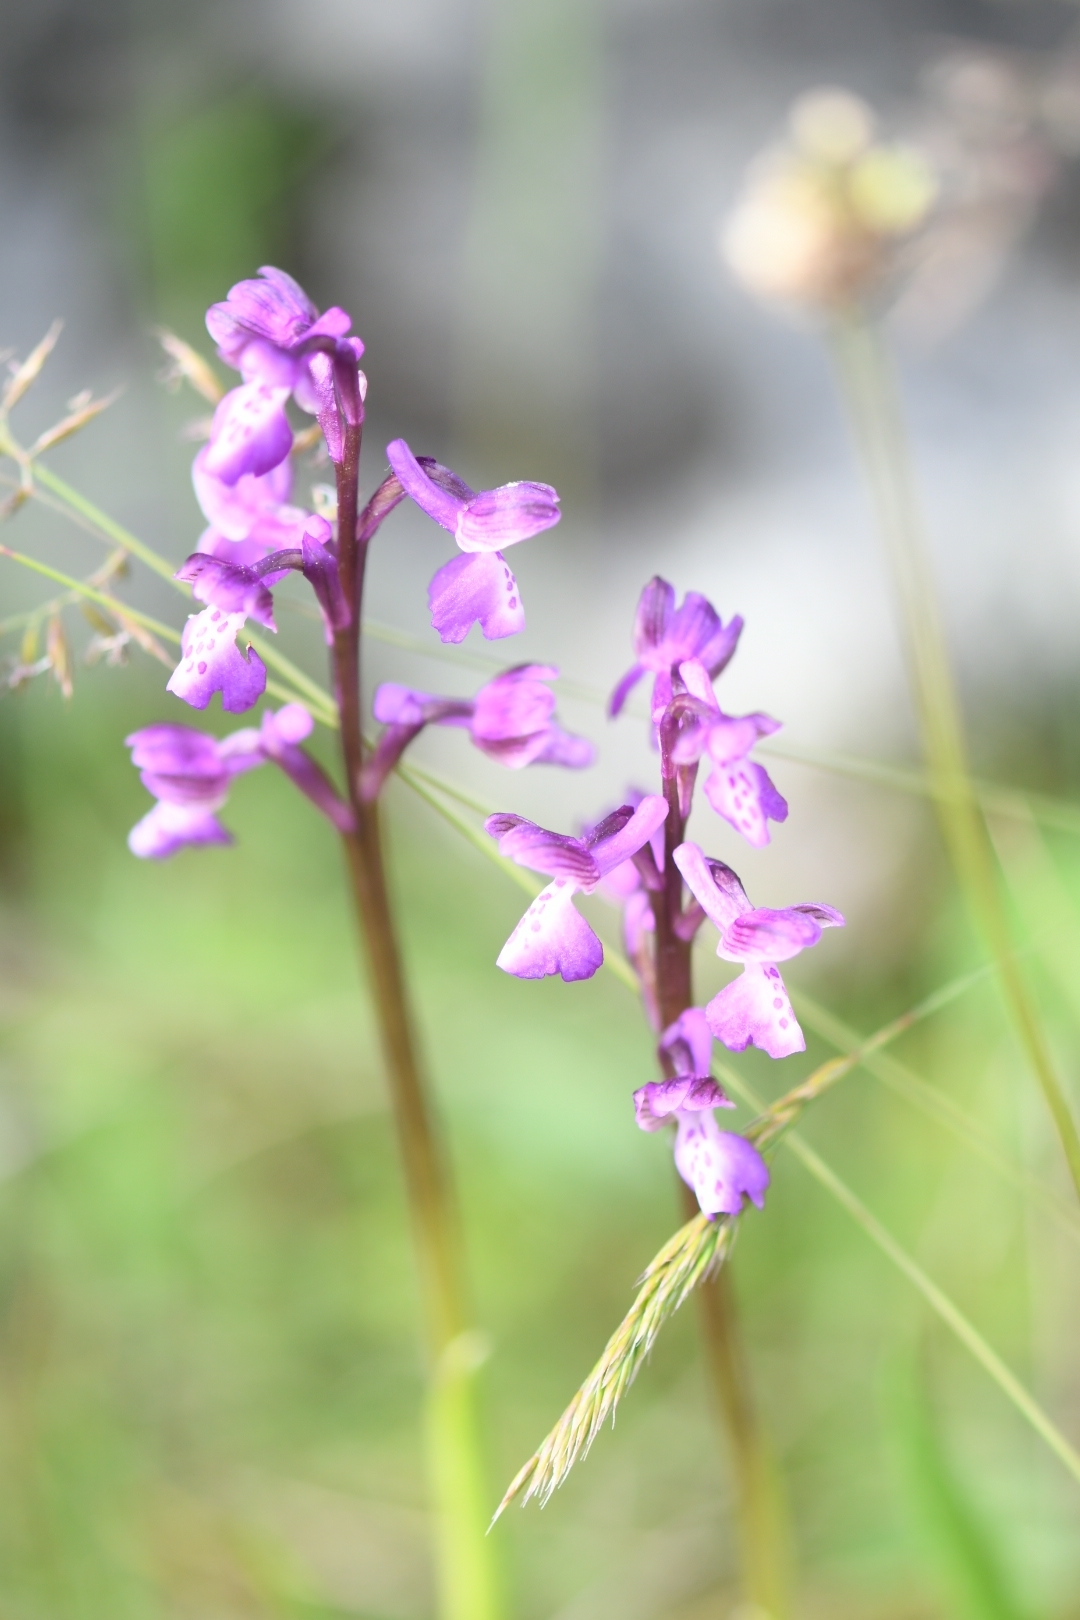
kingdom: Plantae
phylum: Tracheophyta
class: Liliopsida
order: Asparagales
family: Orchidaceae
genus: Anacamptis
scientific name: Anacamptis morio
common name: Green-winged orchid
